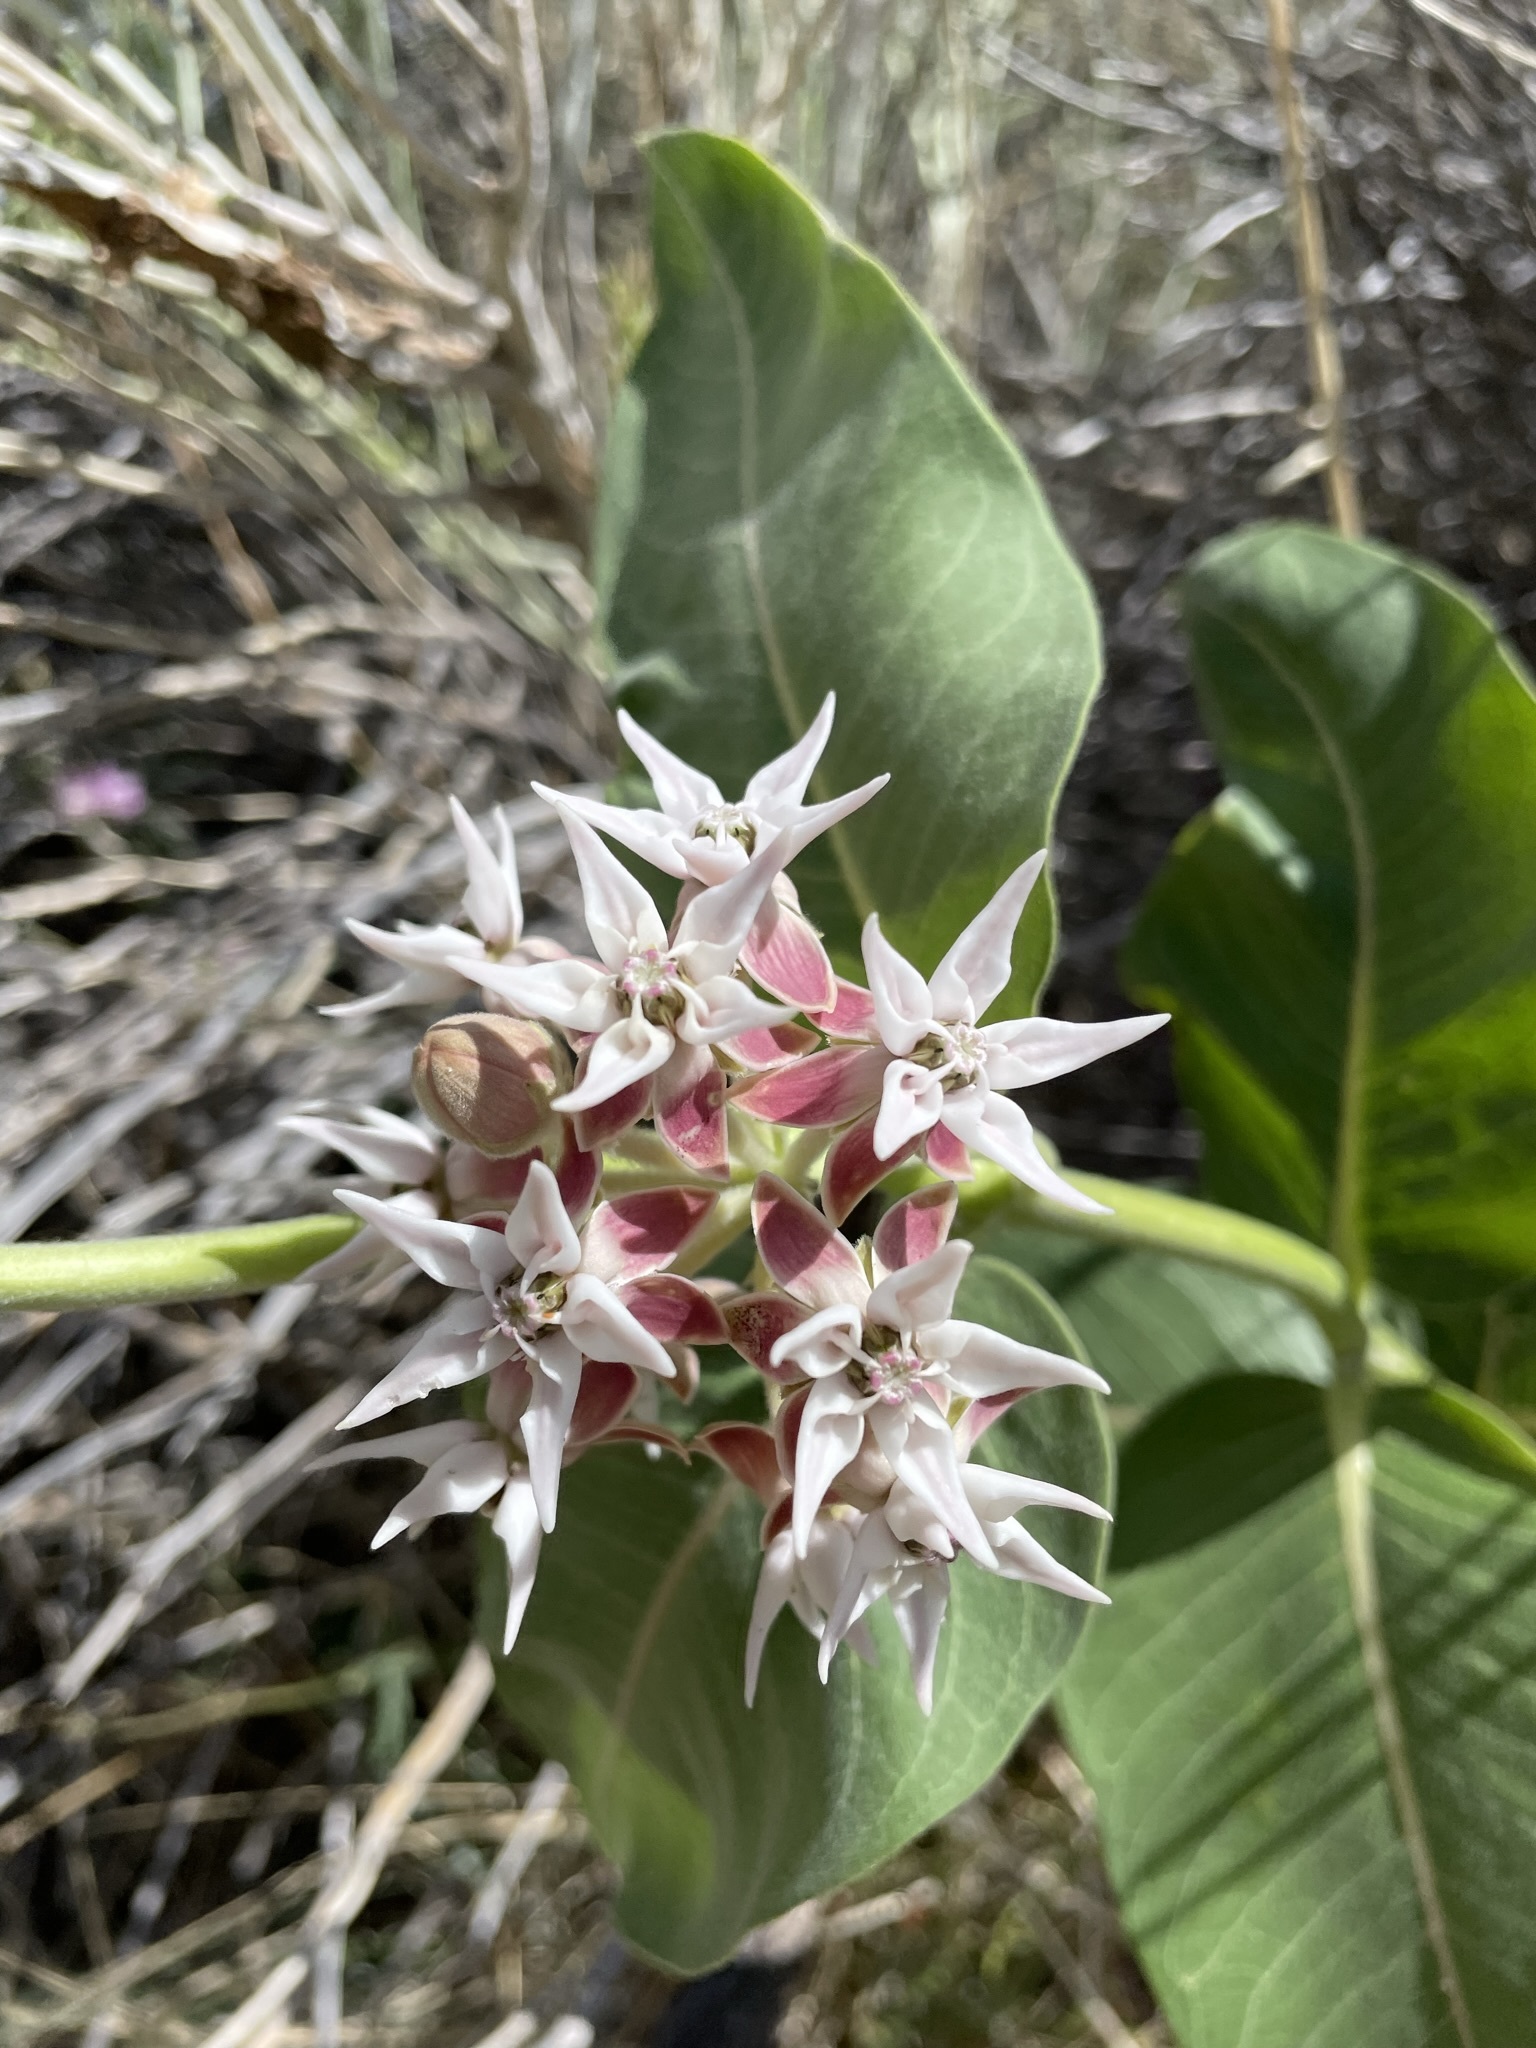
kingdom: Plantae
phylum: Tracheophyta
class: Magnoliopsida
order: Gentianales
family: Apocynaceae
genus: Asclepias
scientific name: Asclepias speciosa
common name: Showy milkweed
